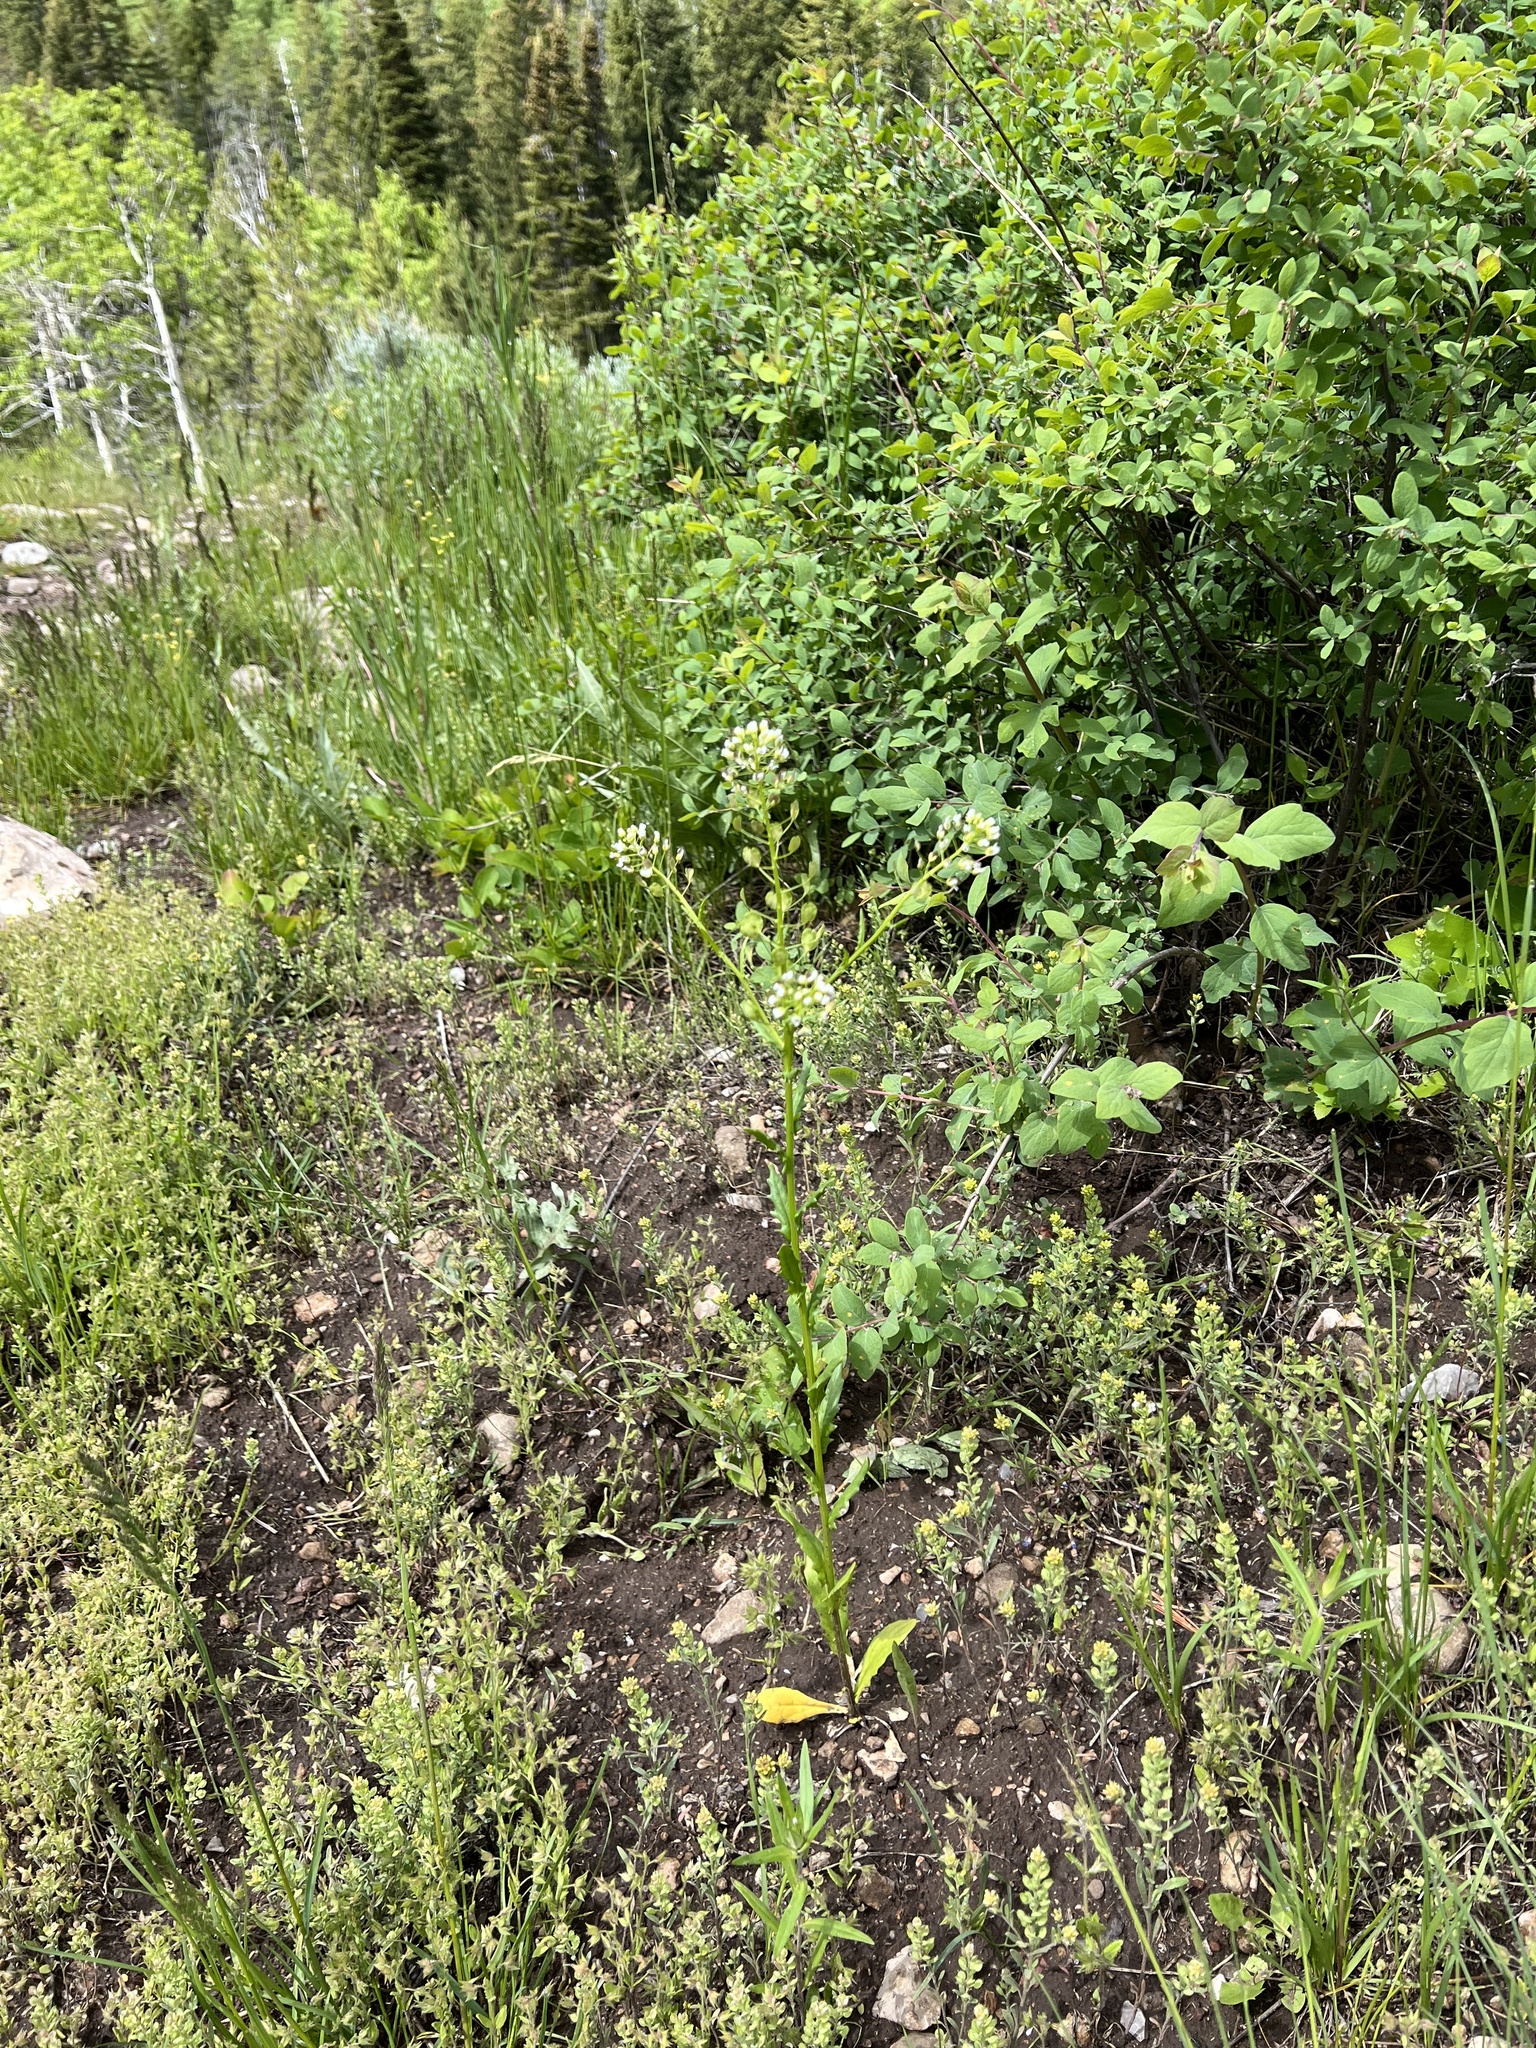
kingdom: Plantae
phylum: Tracheophyta
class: Magnoliopsida
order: Brassicales
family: Brassicaceae
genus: Thlaspi
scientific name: Thlaspi arvense
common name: Field pennycress
